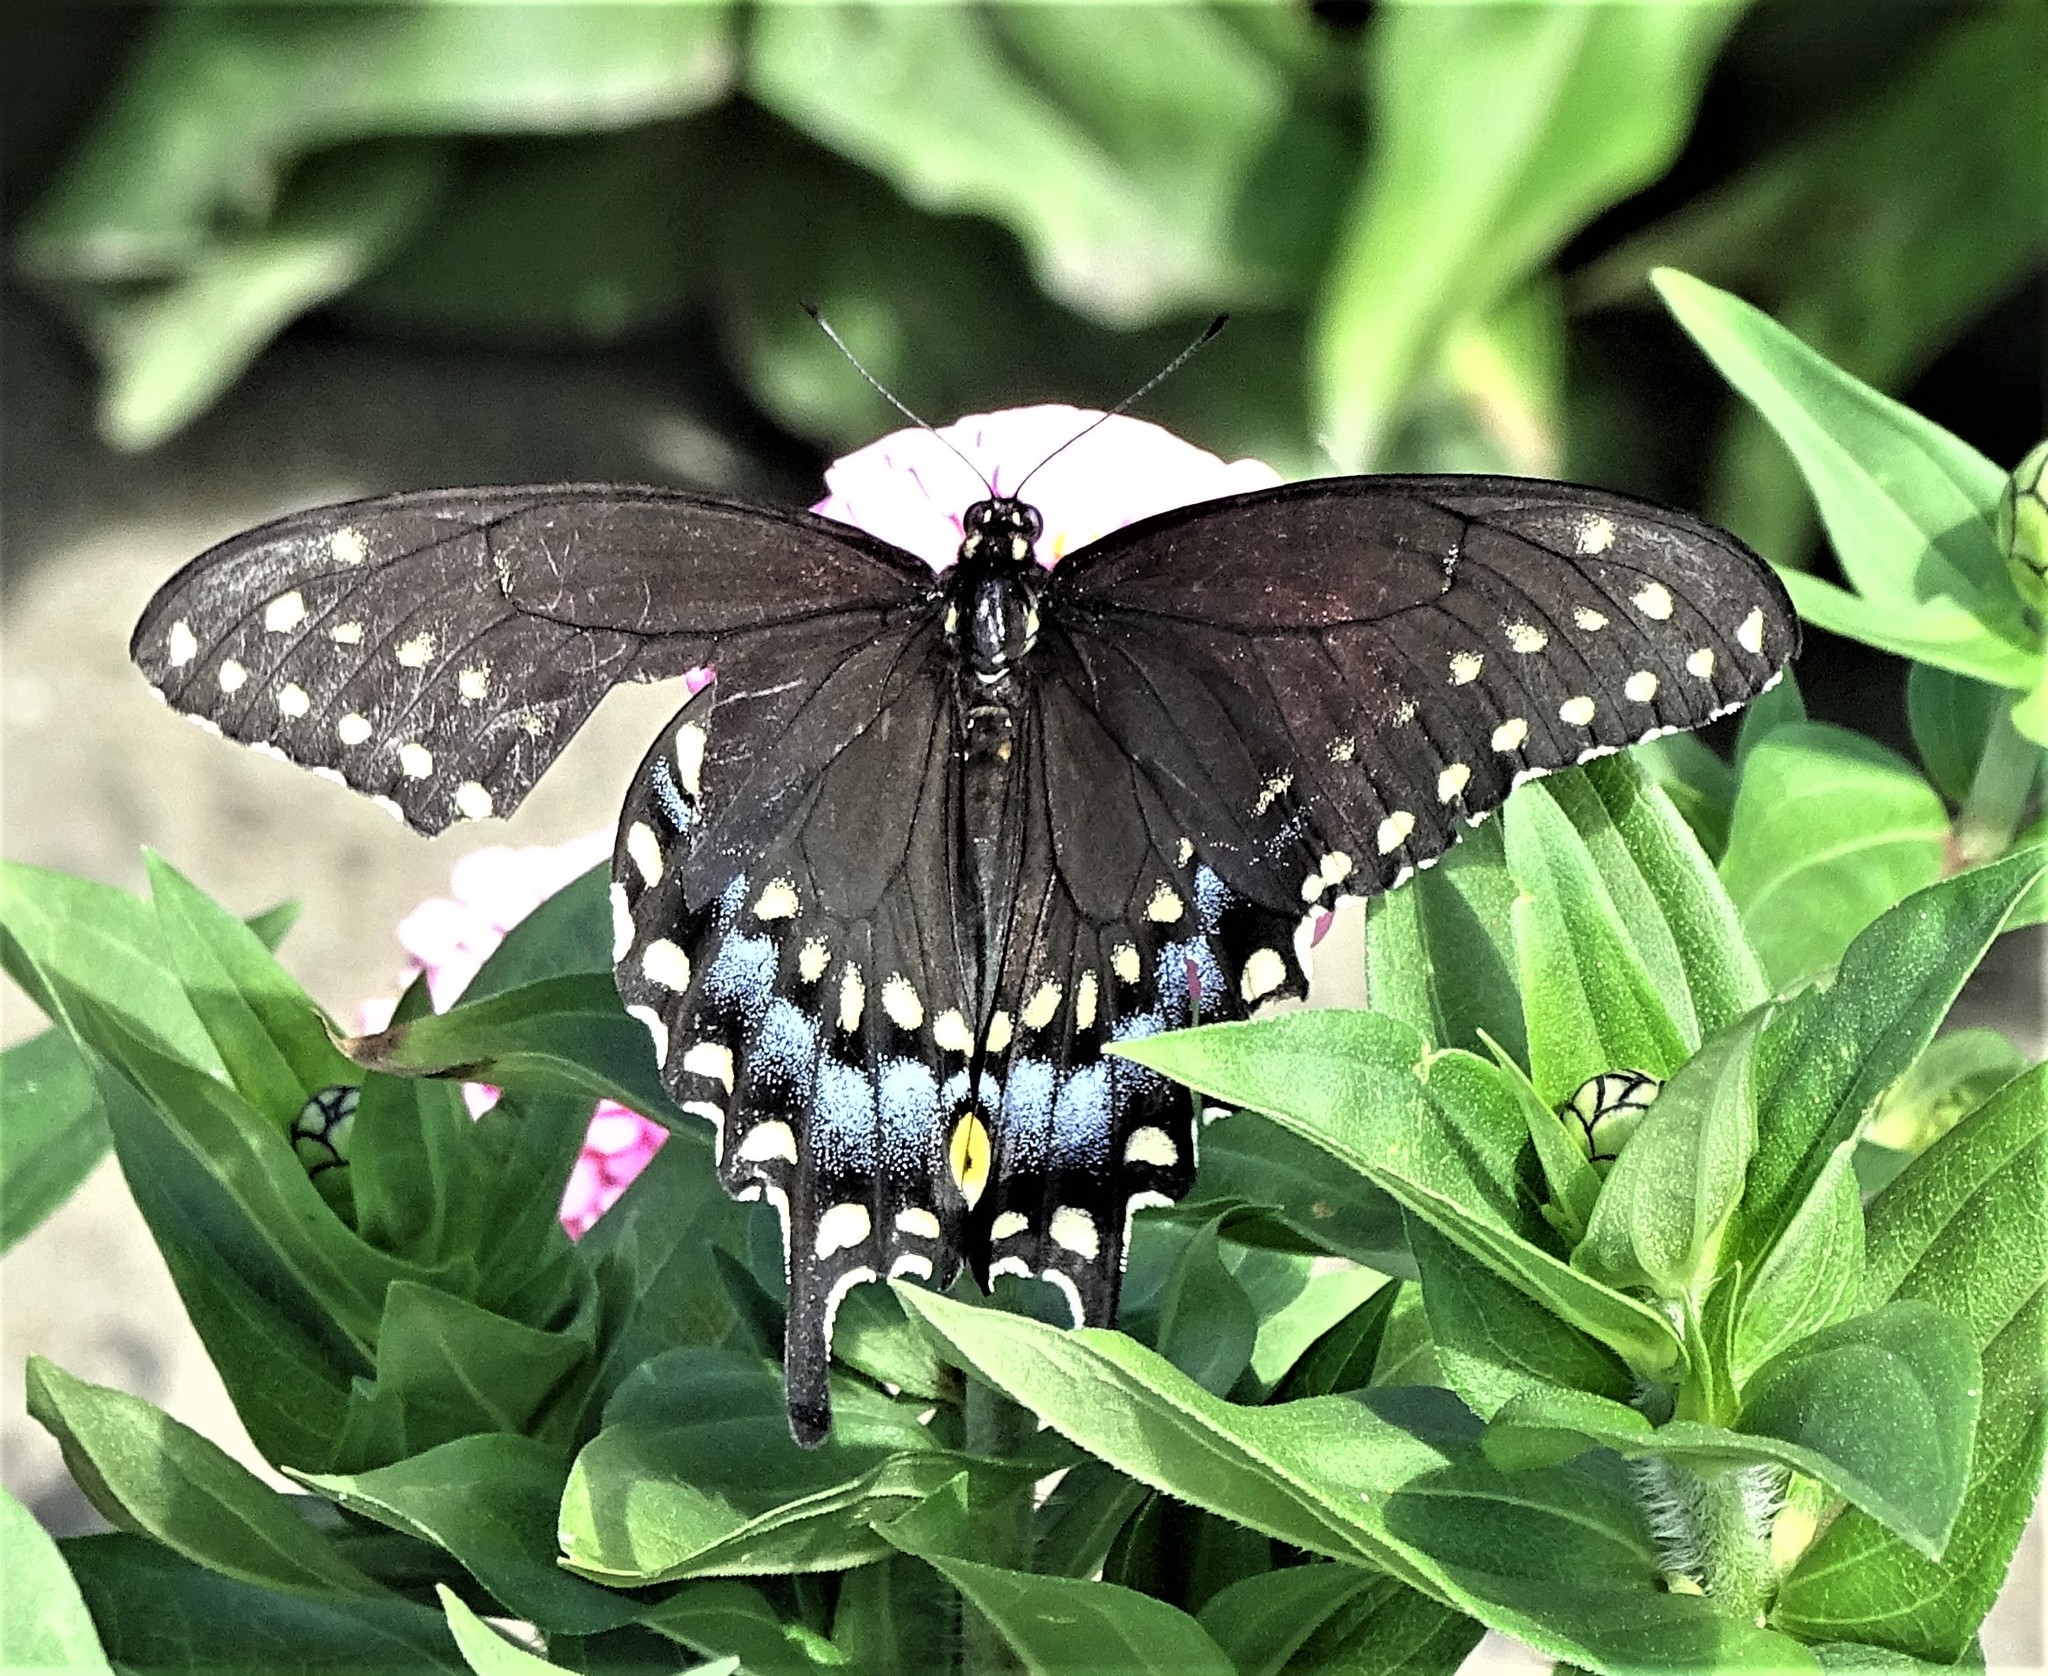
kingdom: Animalia
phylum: Arthropoda
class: Insecta
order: Lepidoptera
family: Papilionidae
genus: Papilio
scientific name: Papilio polyxenes
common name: Black swallowtail
